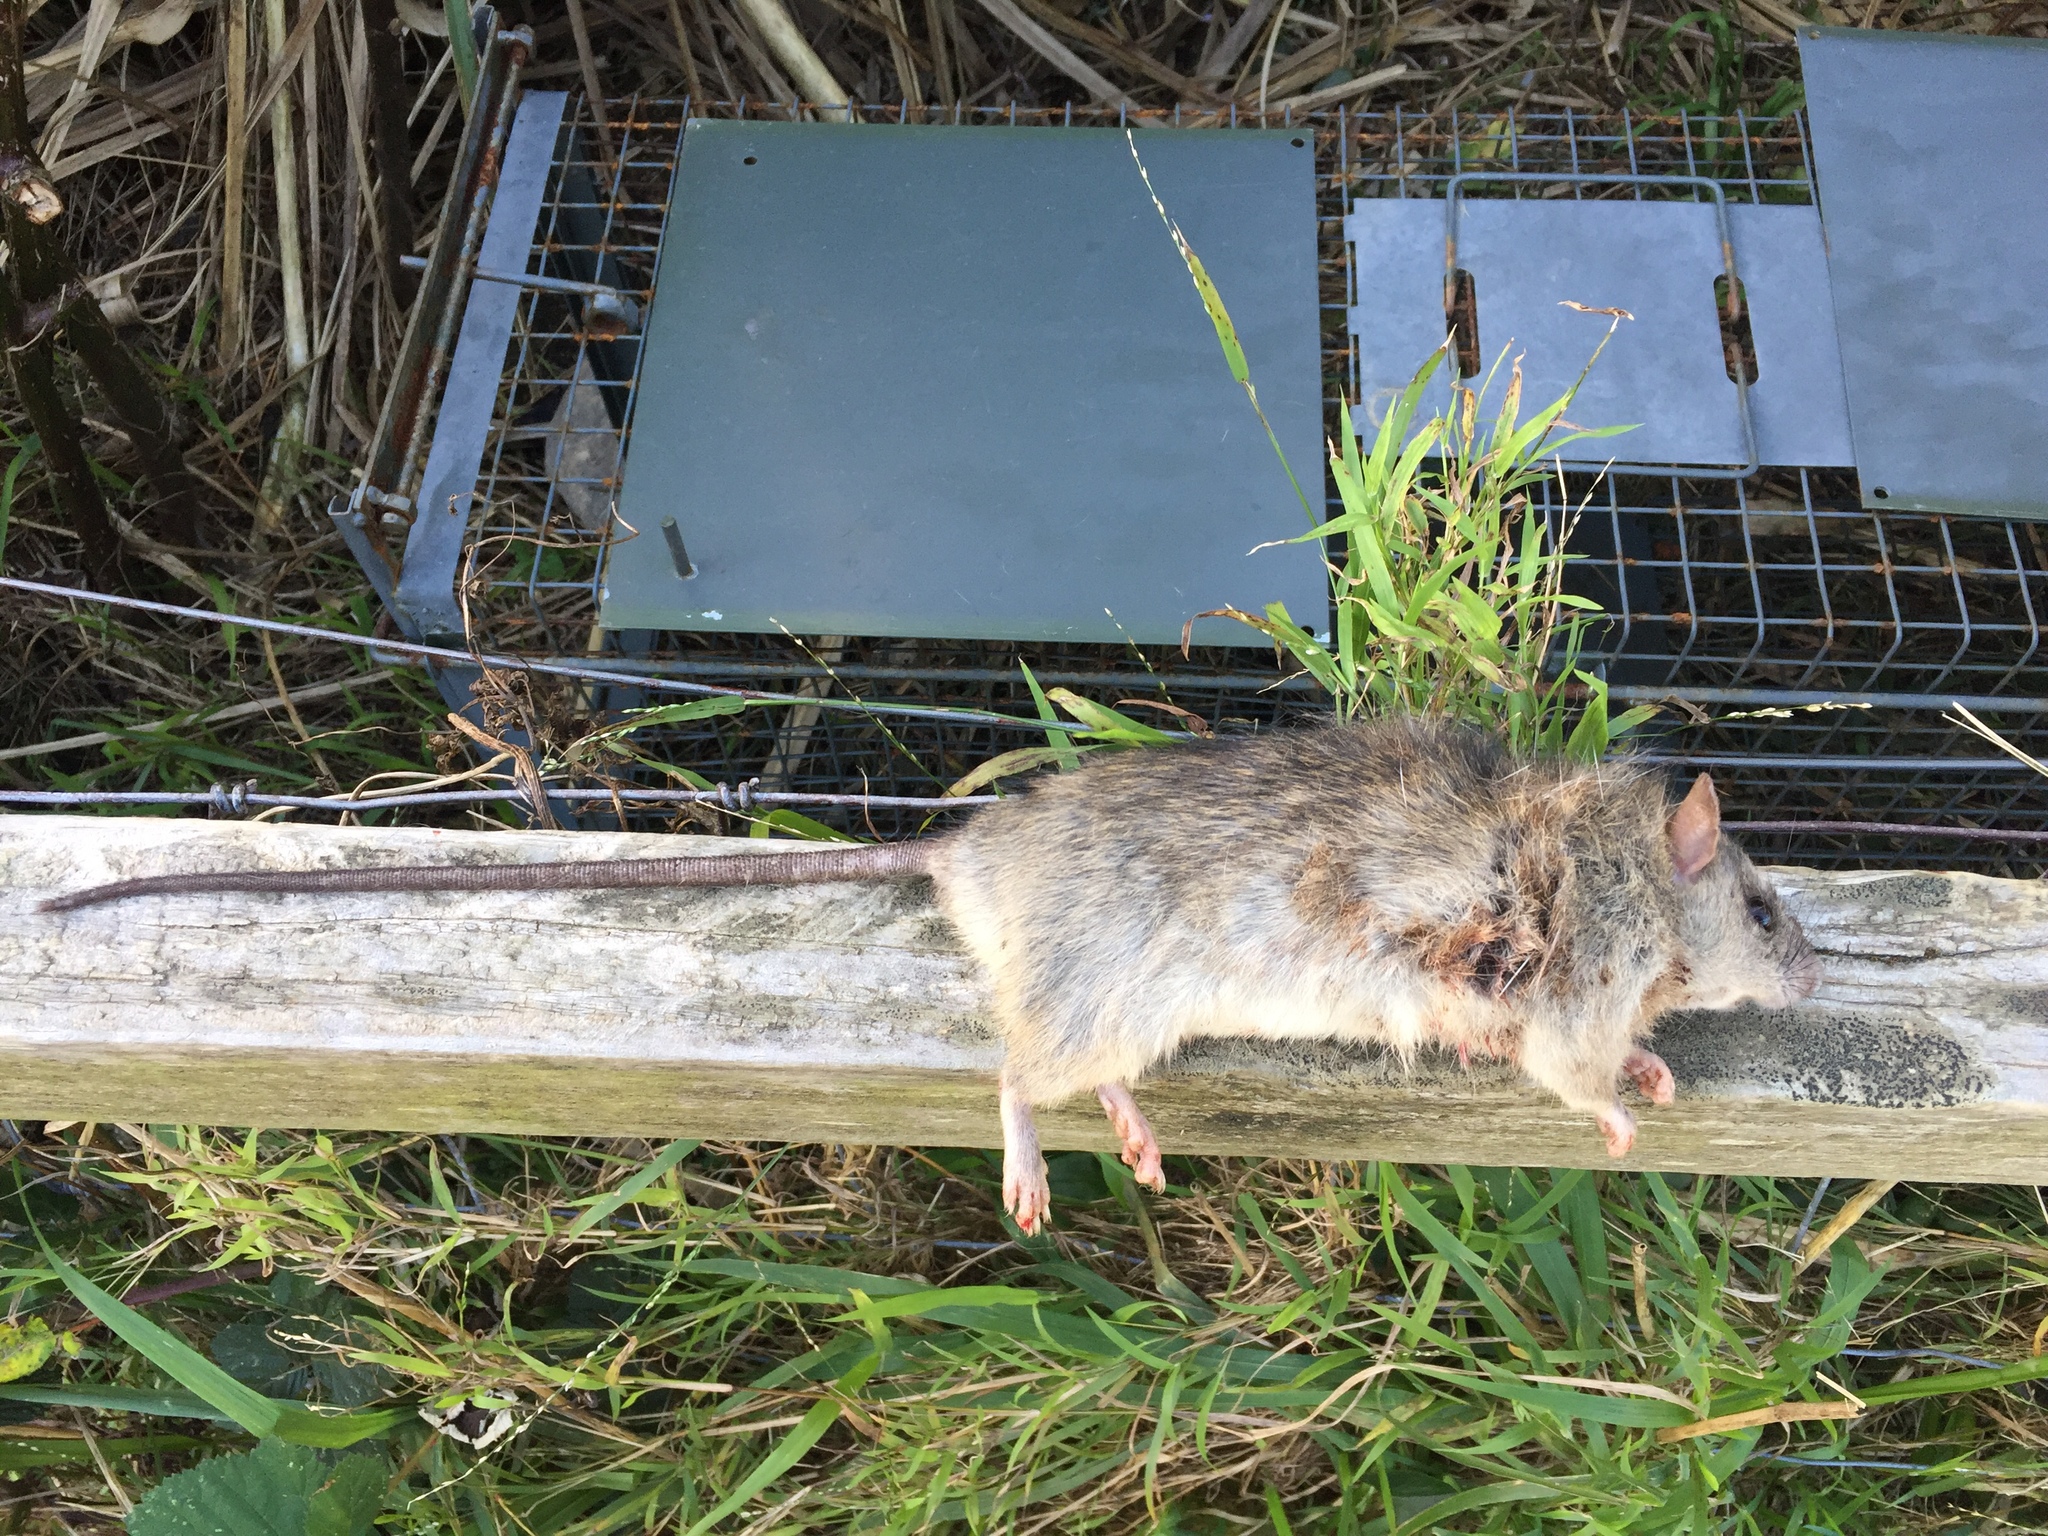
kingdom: Animalia
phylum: Chordata
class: Mammalia
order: Rodentia
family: Muridae
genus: Rattus
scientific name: Rattus rattus
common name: Black rat
